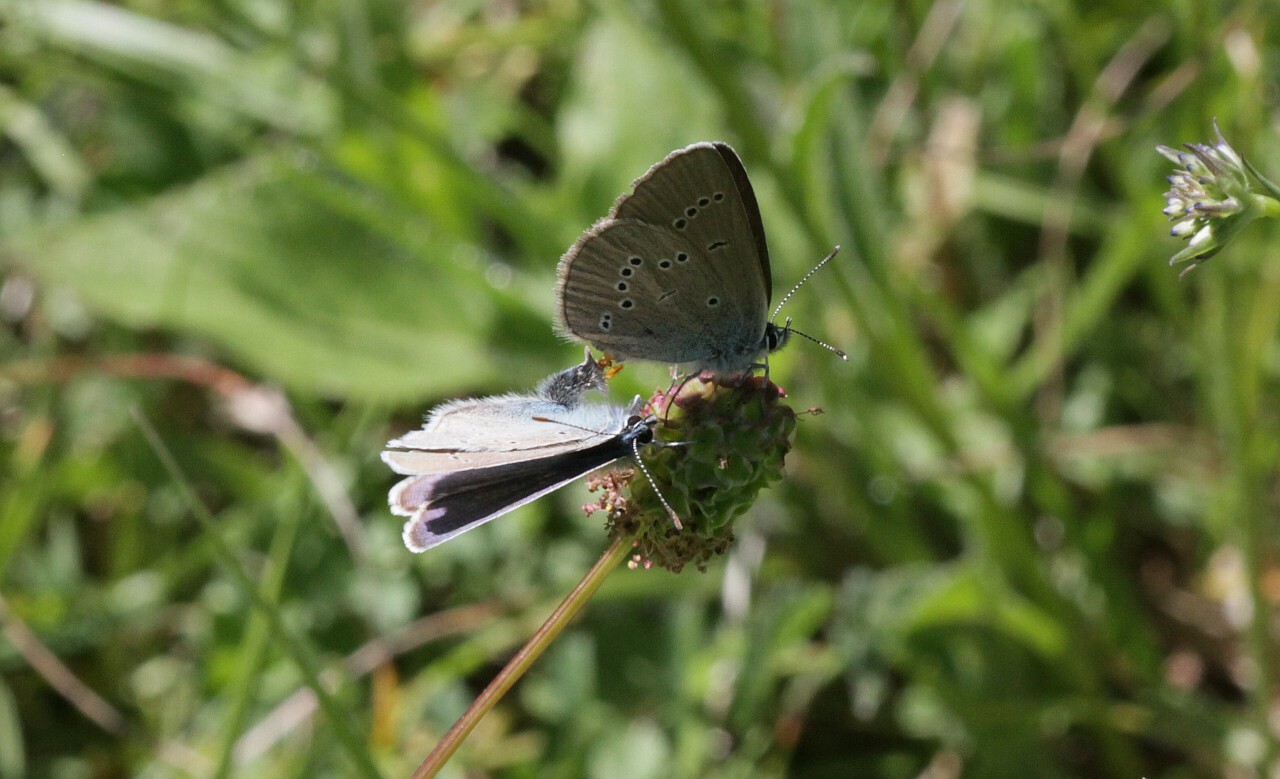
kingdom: Animalia
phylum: Arthropoda
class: Insecta
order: Lepidoptera
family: Lycaenidae
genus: Cyaniris
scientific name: Cyaniris semiargus
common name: Mazarine blue
